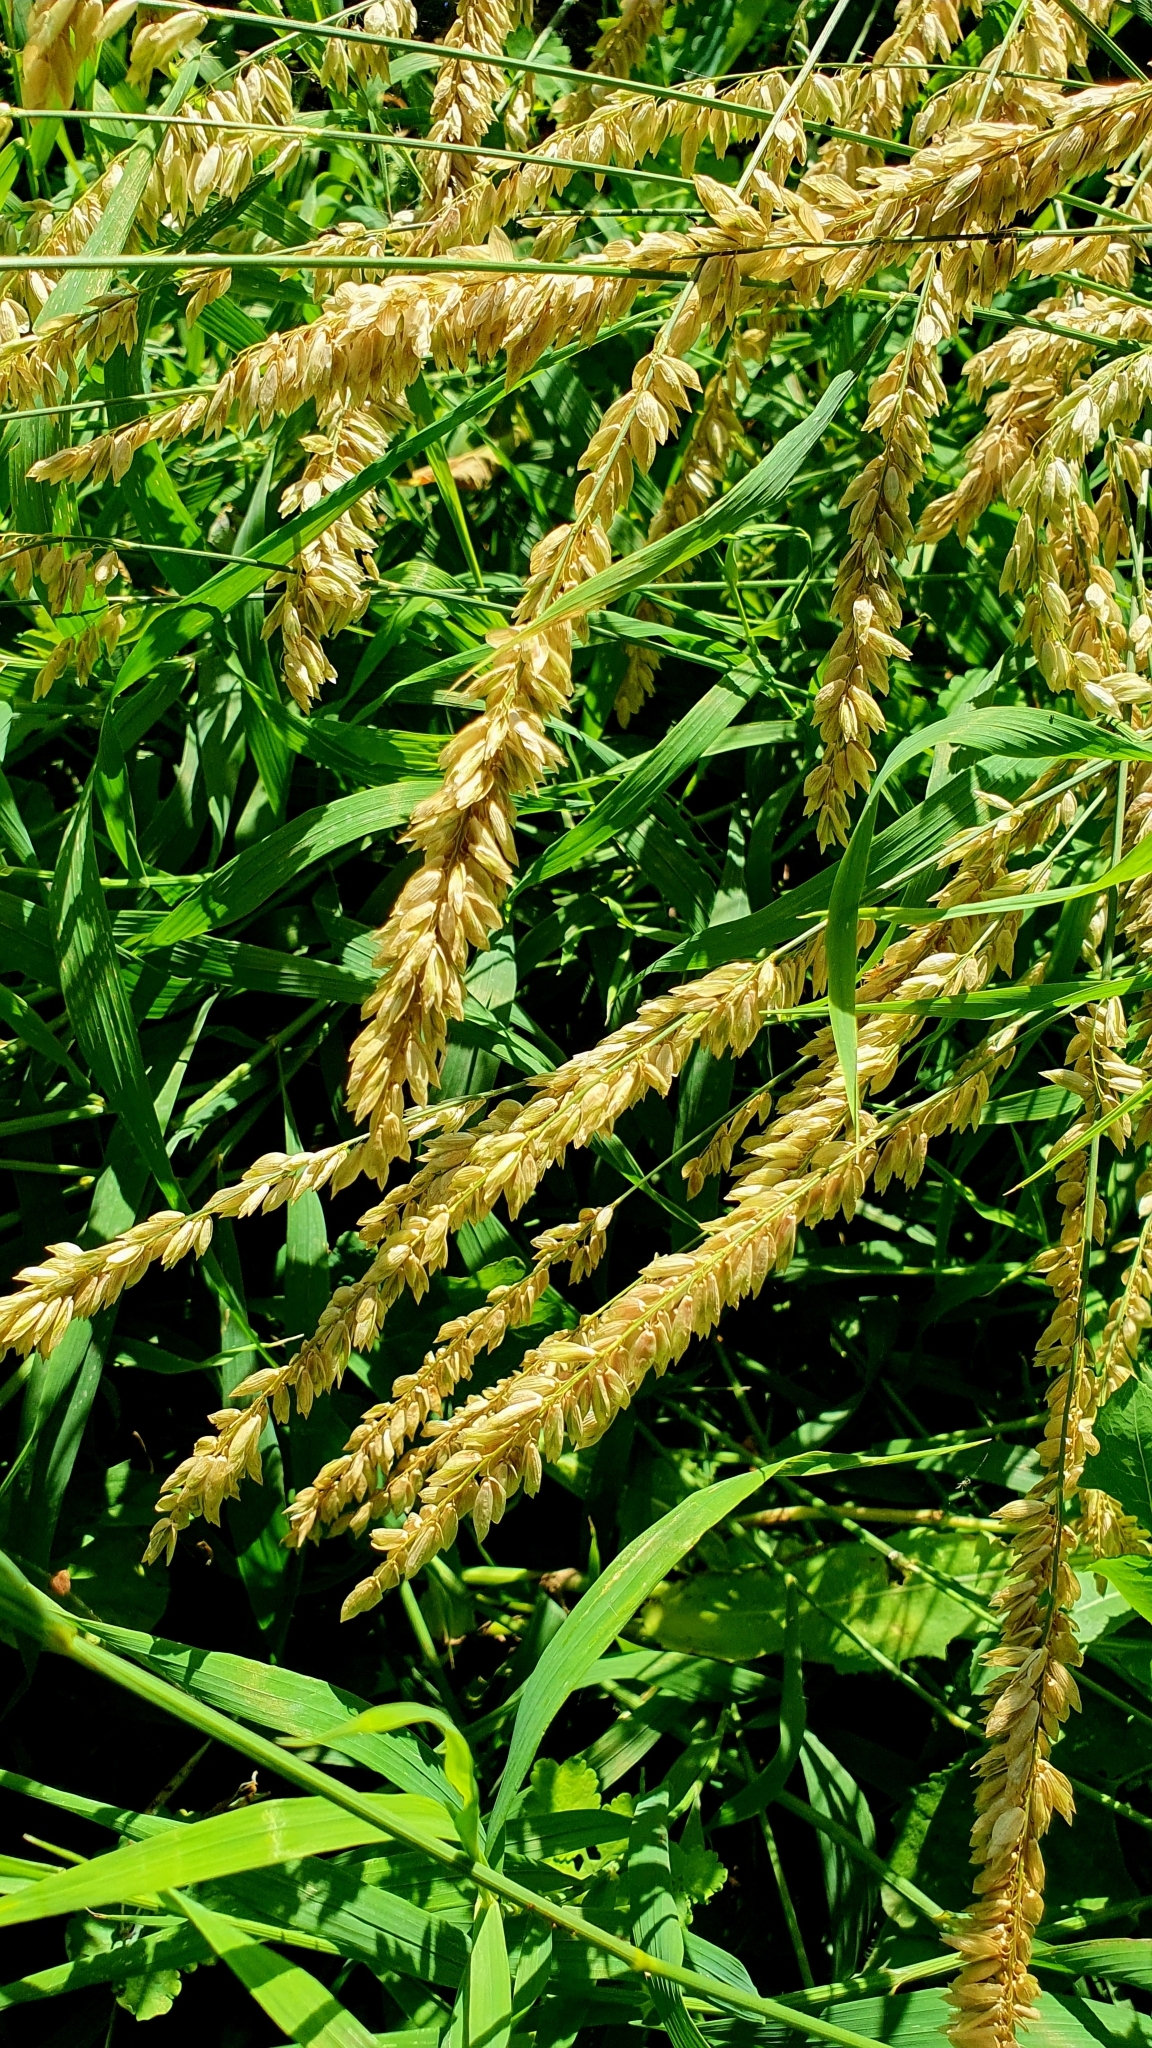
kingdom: Plantae
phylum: Tracheophyta
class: Liliopsida
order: Poales
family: Poaceae
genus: Melica
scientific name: Melica altissima
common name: Siberian melicgrass
